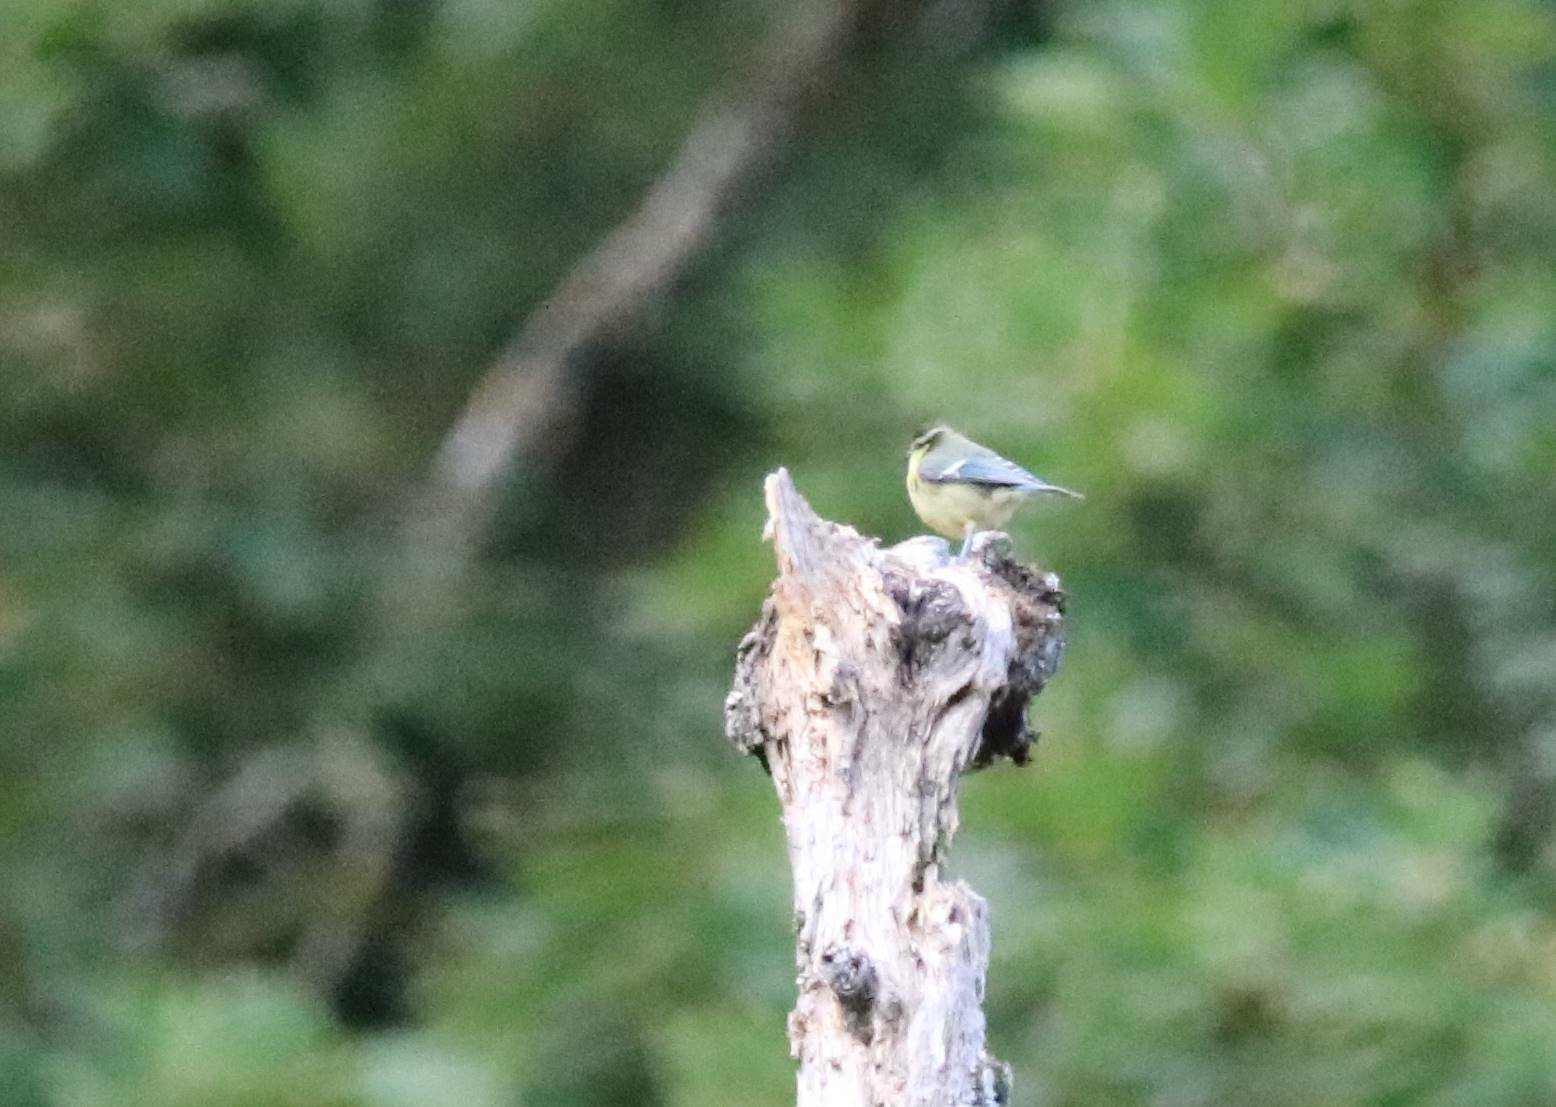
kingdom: Animalia
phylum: Chordata
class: Aves
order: Passeriformes
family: Paridae
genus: Cyanistes
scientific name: Cyanistes teneriffae
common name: African blue tit
